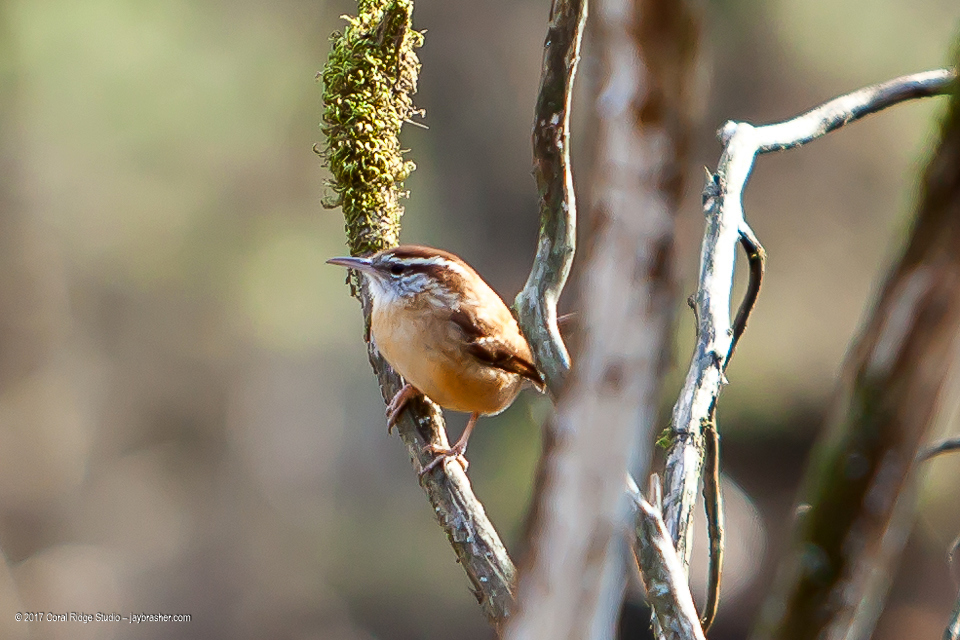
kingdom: Animalia
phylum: Chordata
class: Aves
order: Passeriformes
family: Troglodytidae
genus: Thryothorus
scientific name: Thryothorus ludovicianus
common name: Carolina wren
